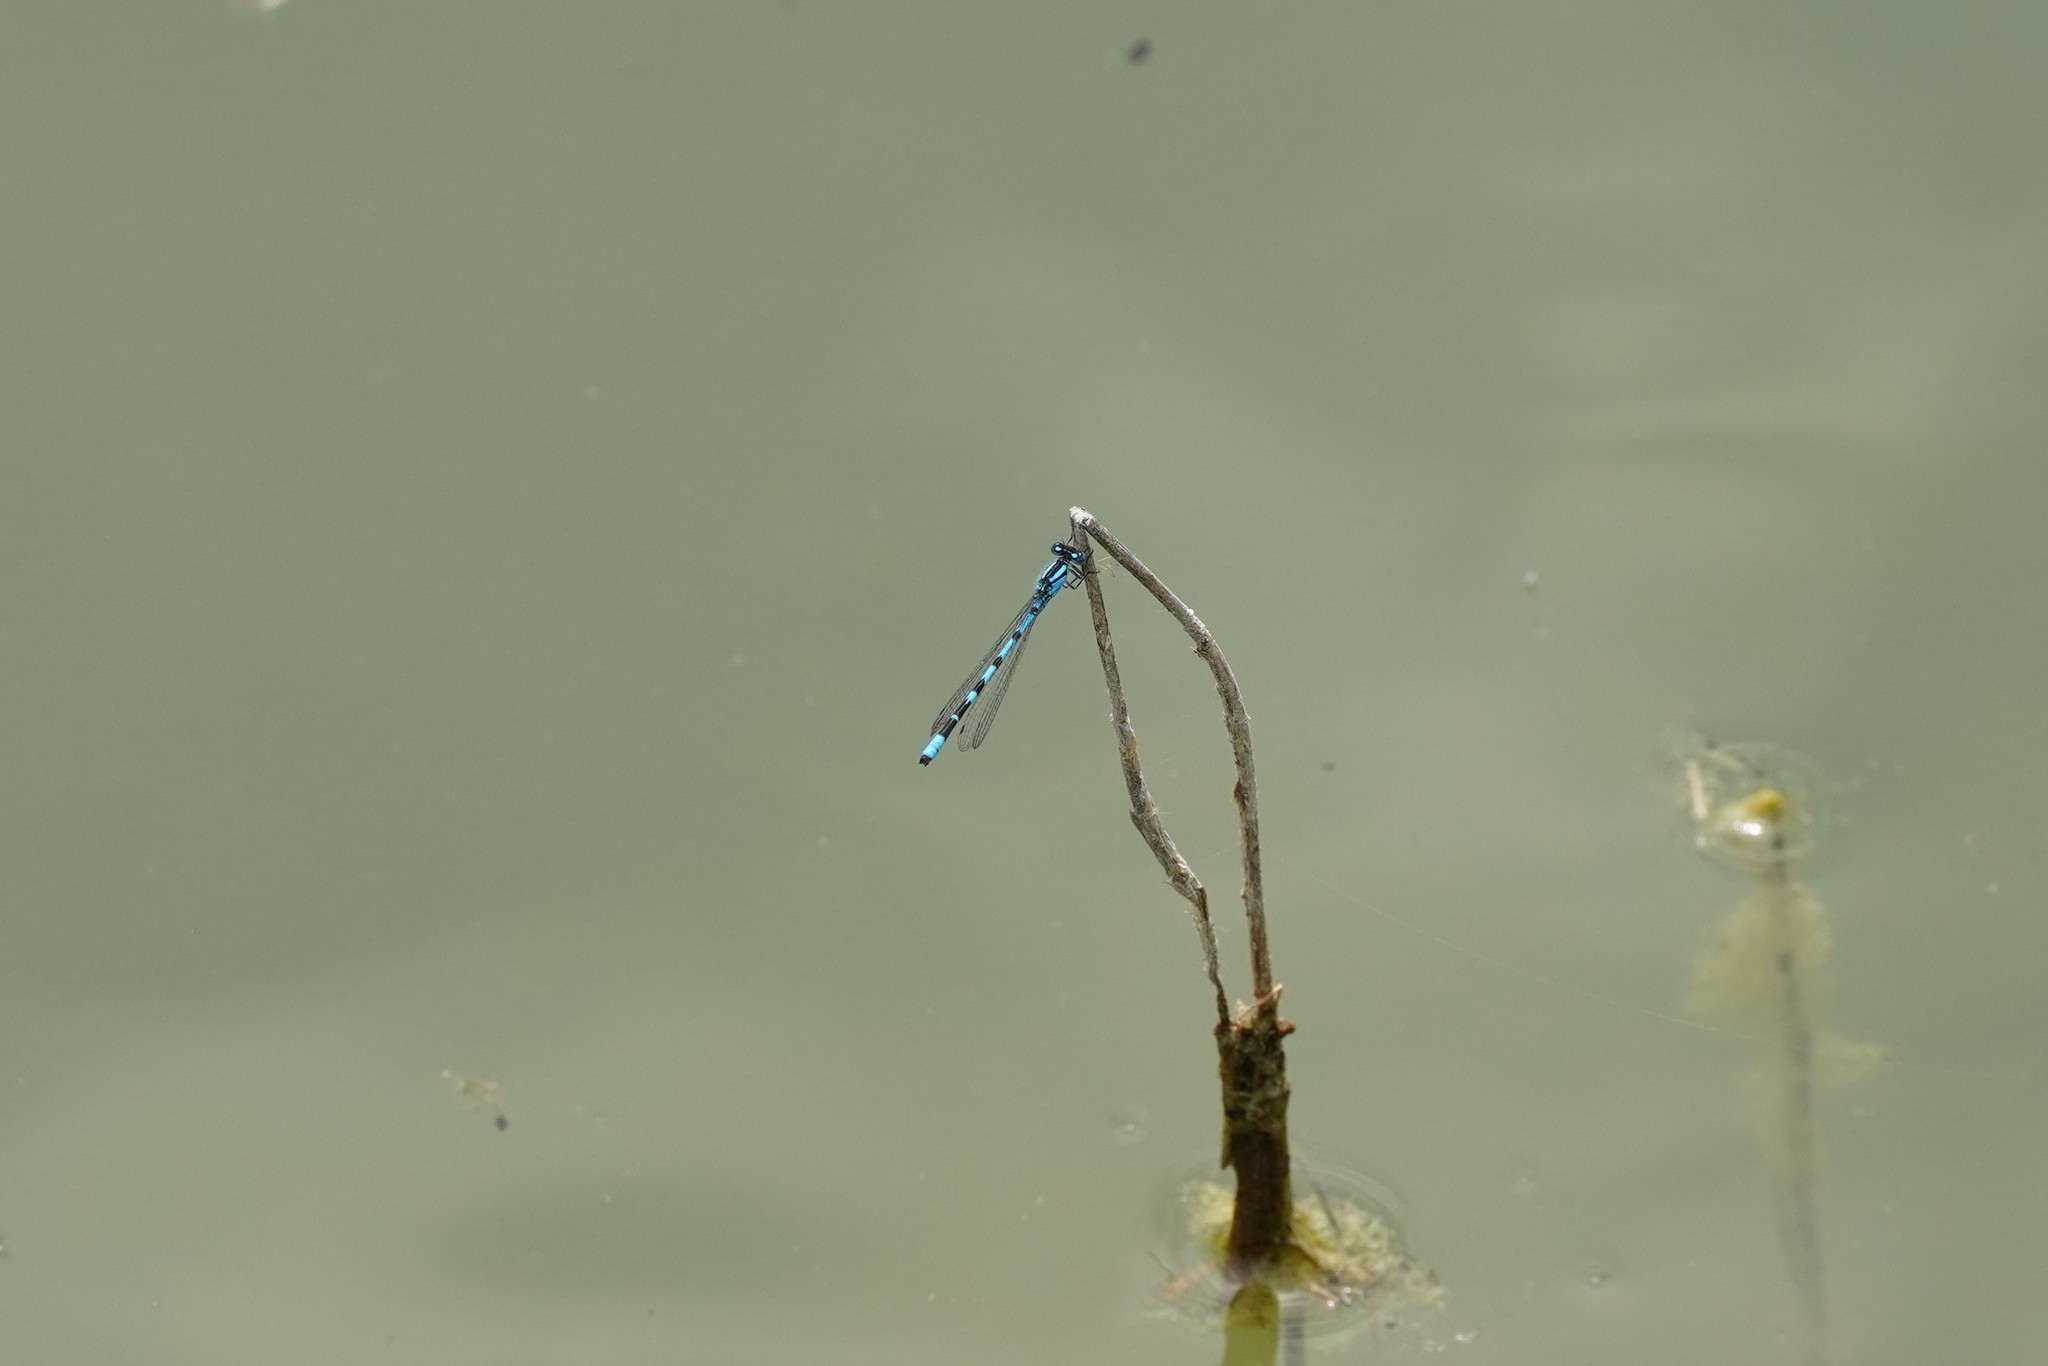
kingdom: Animalia
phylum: Arthropoda
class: Insecta
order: Odonata
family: Coenagrionidae
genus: Enallagma
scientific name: Enallagma cyathigerum
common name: Common blue damselfly
